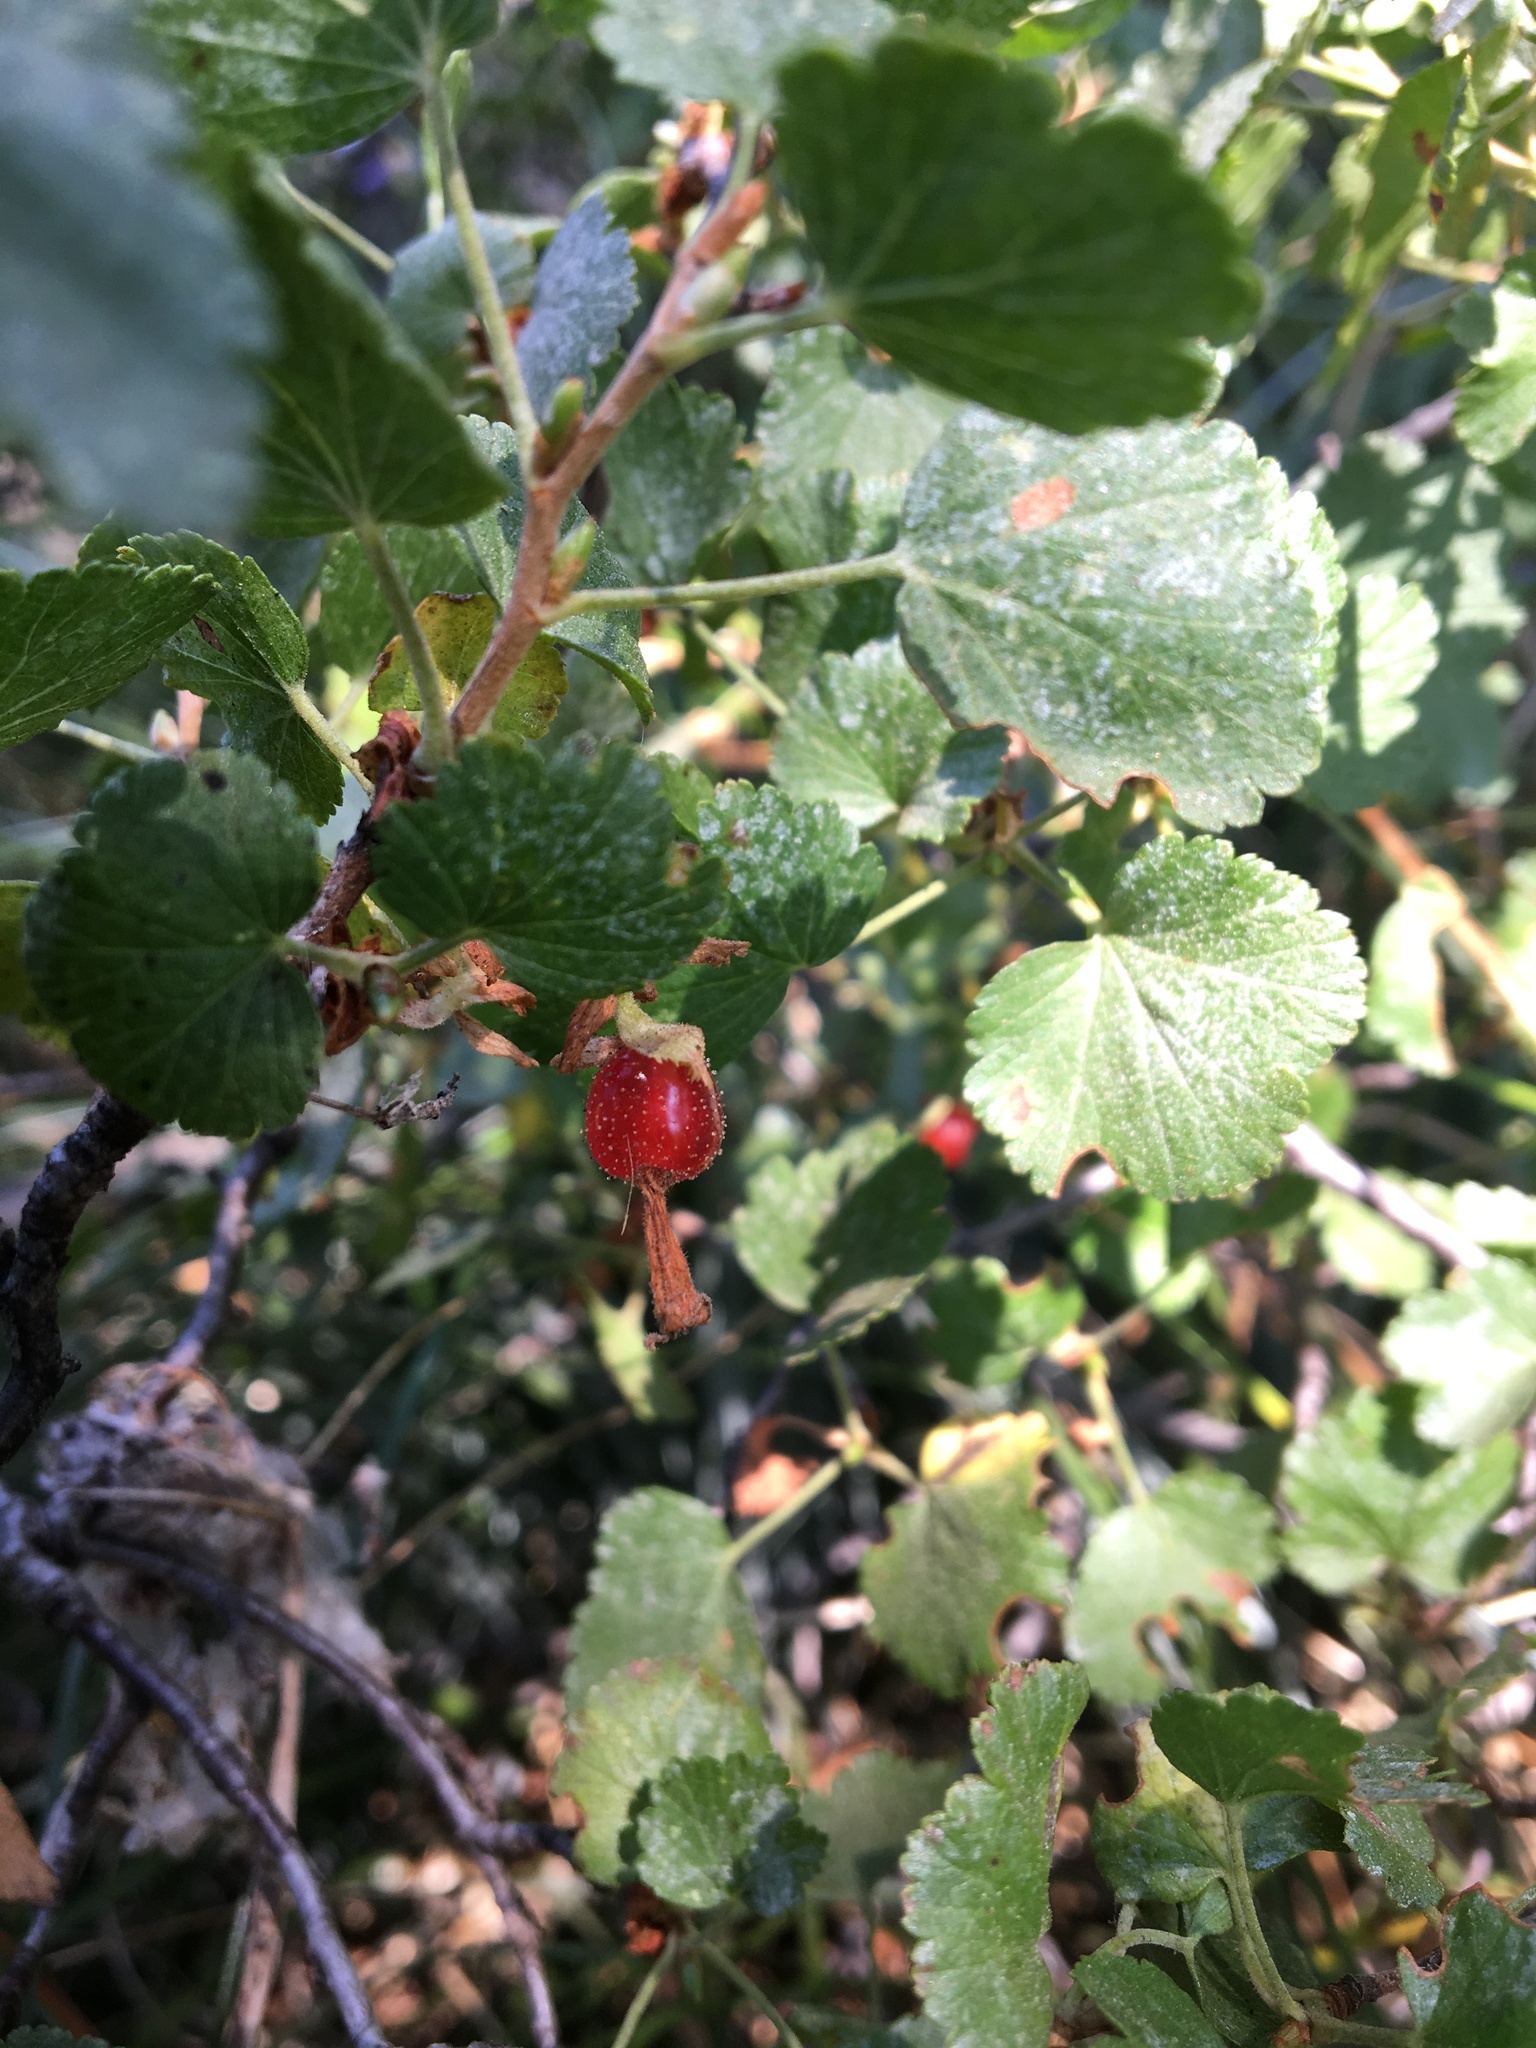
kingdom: Plantae
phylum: Tracheophyta
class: Magnoliopsida
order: Saxifragales
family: Grossulariaceae
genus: Ribes
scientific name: Ribes cereum
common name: Wax currant
